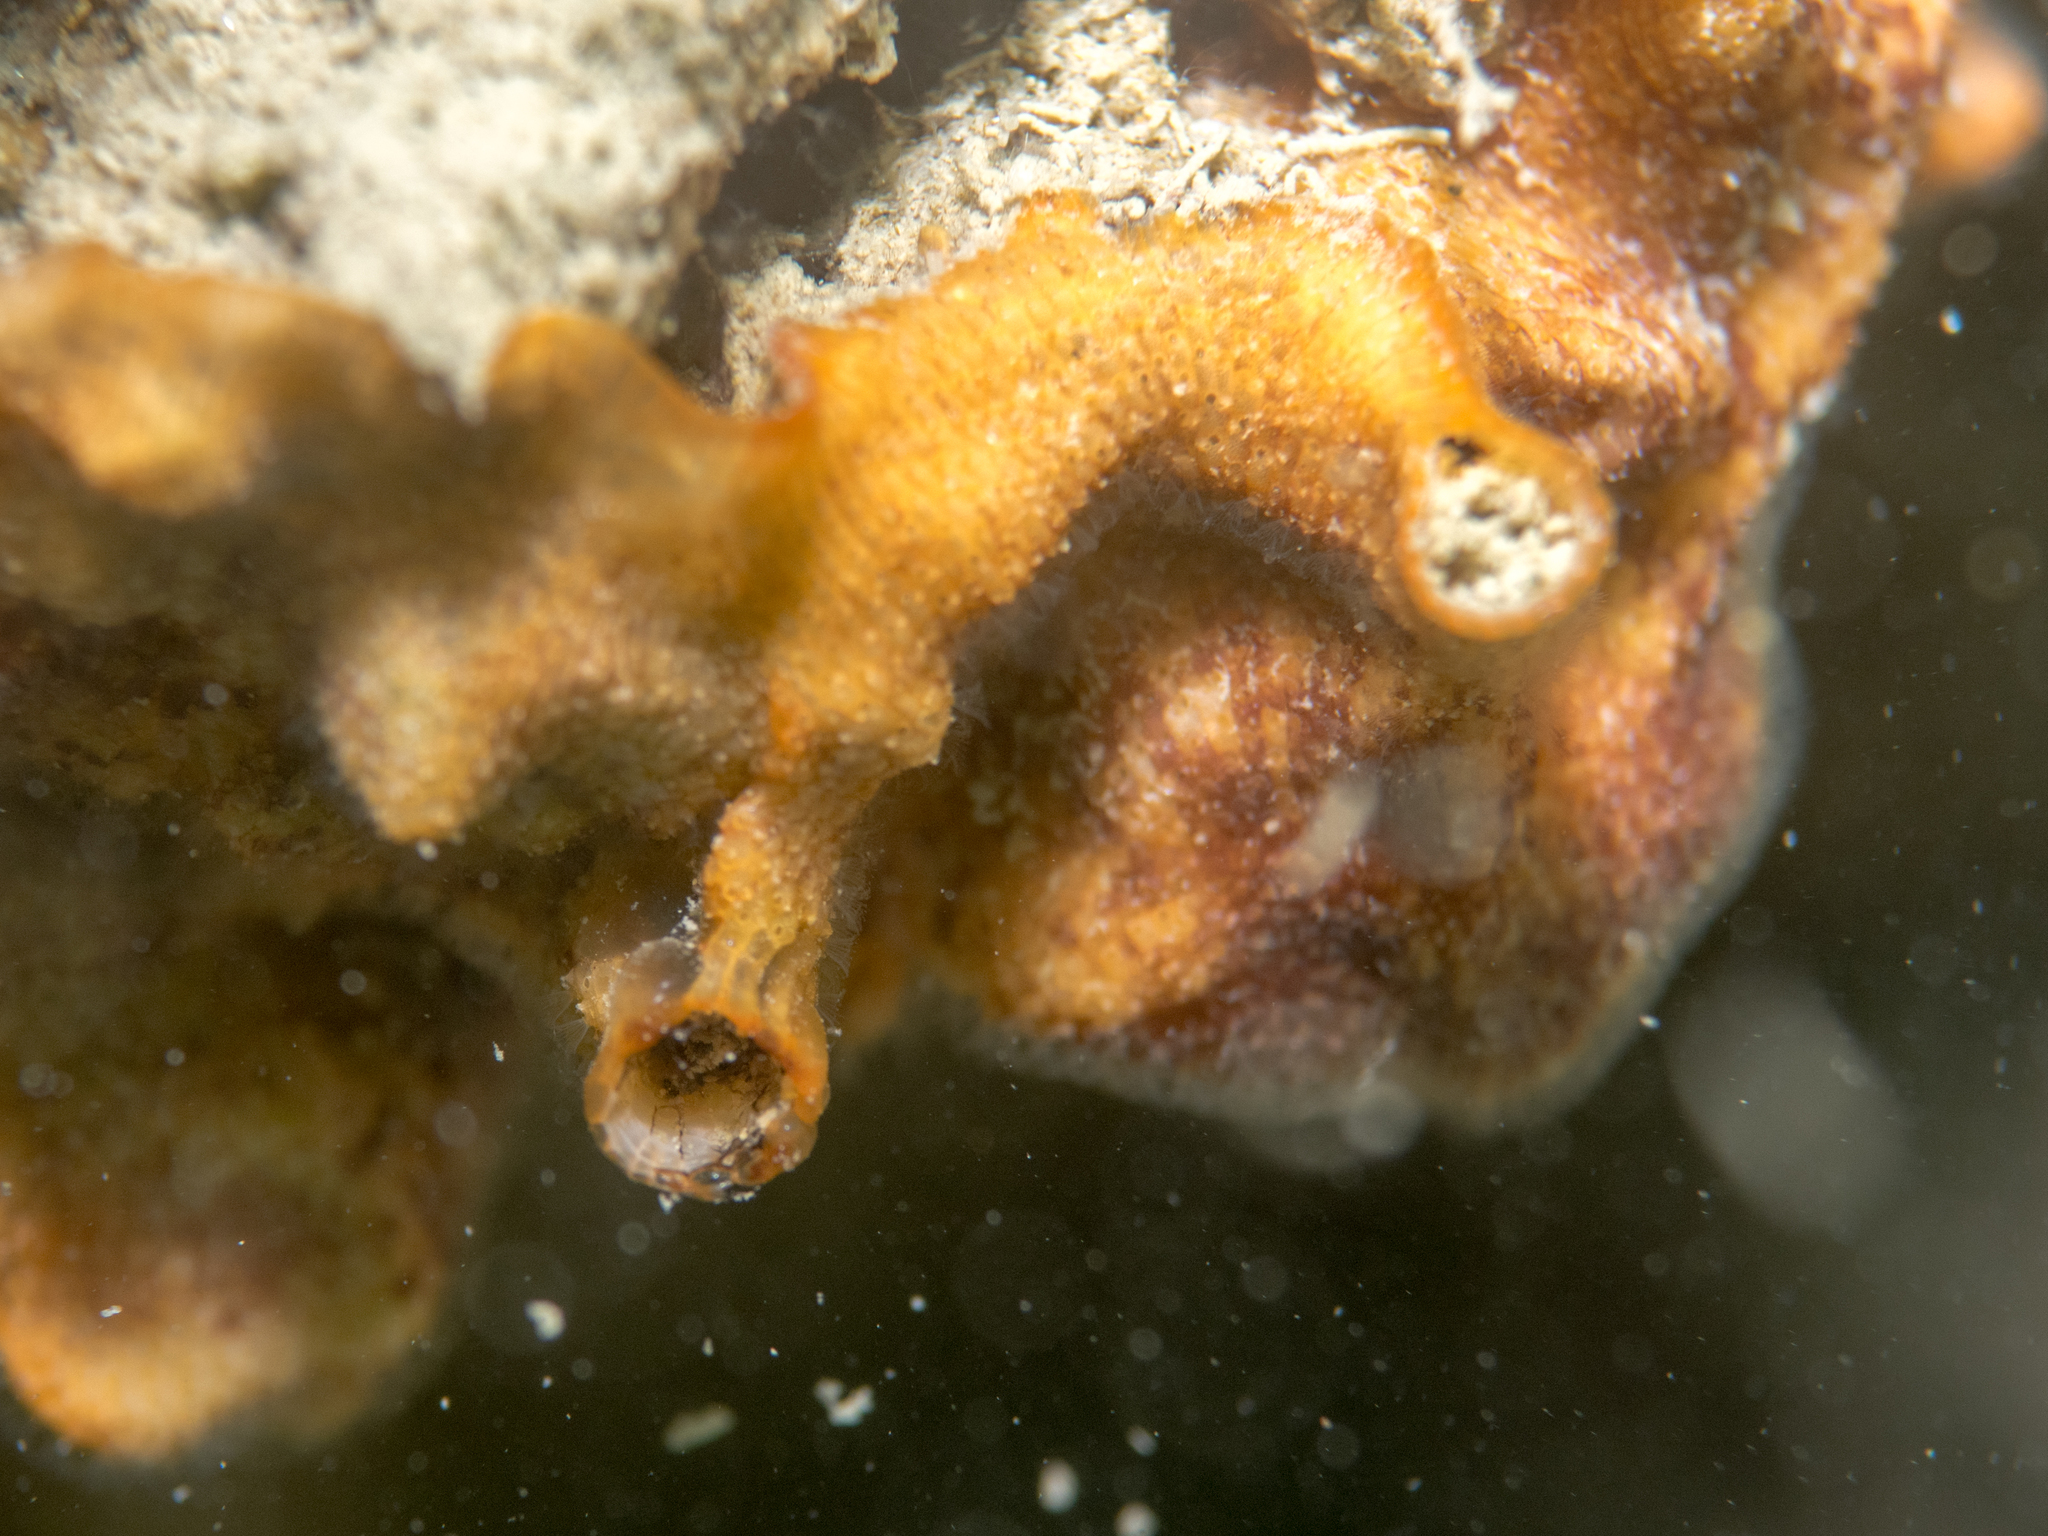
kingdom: Animalia
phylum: Bryozoa
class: Gymnolaemata
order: Cheilostomatida
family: Schizoporellidae
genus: Schizoporella
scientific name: Schizoporella errata
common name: Branching bryozoan
